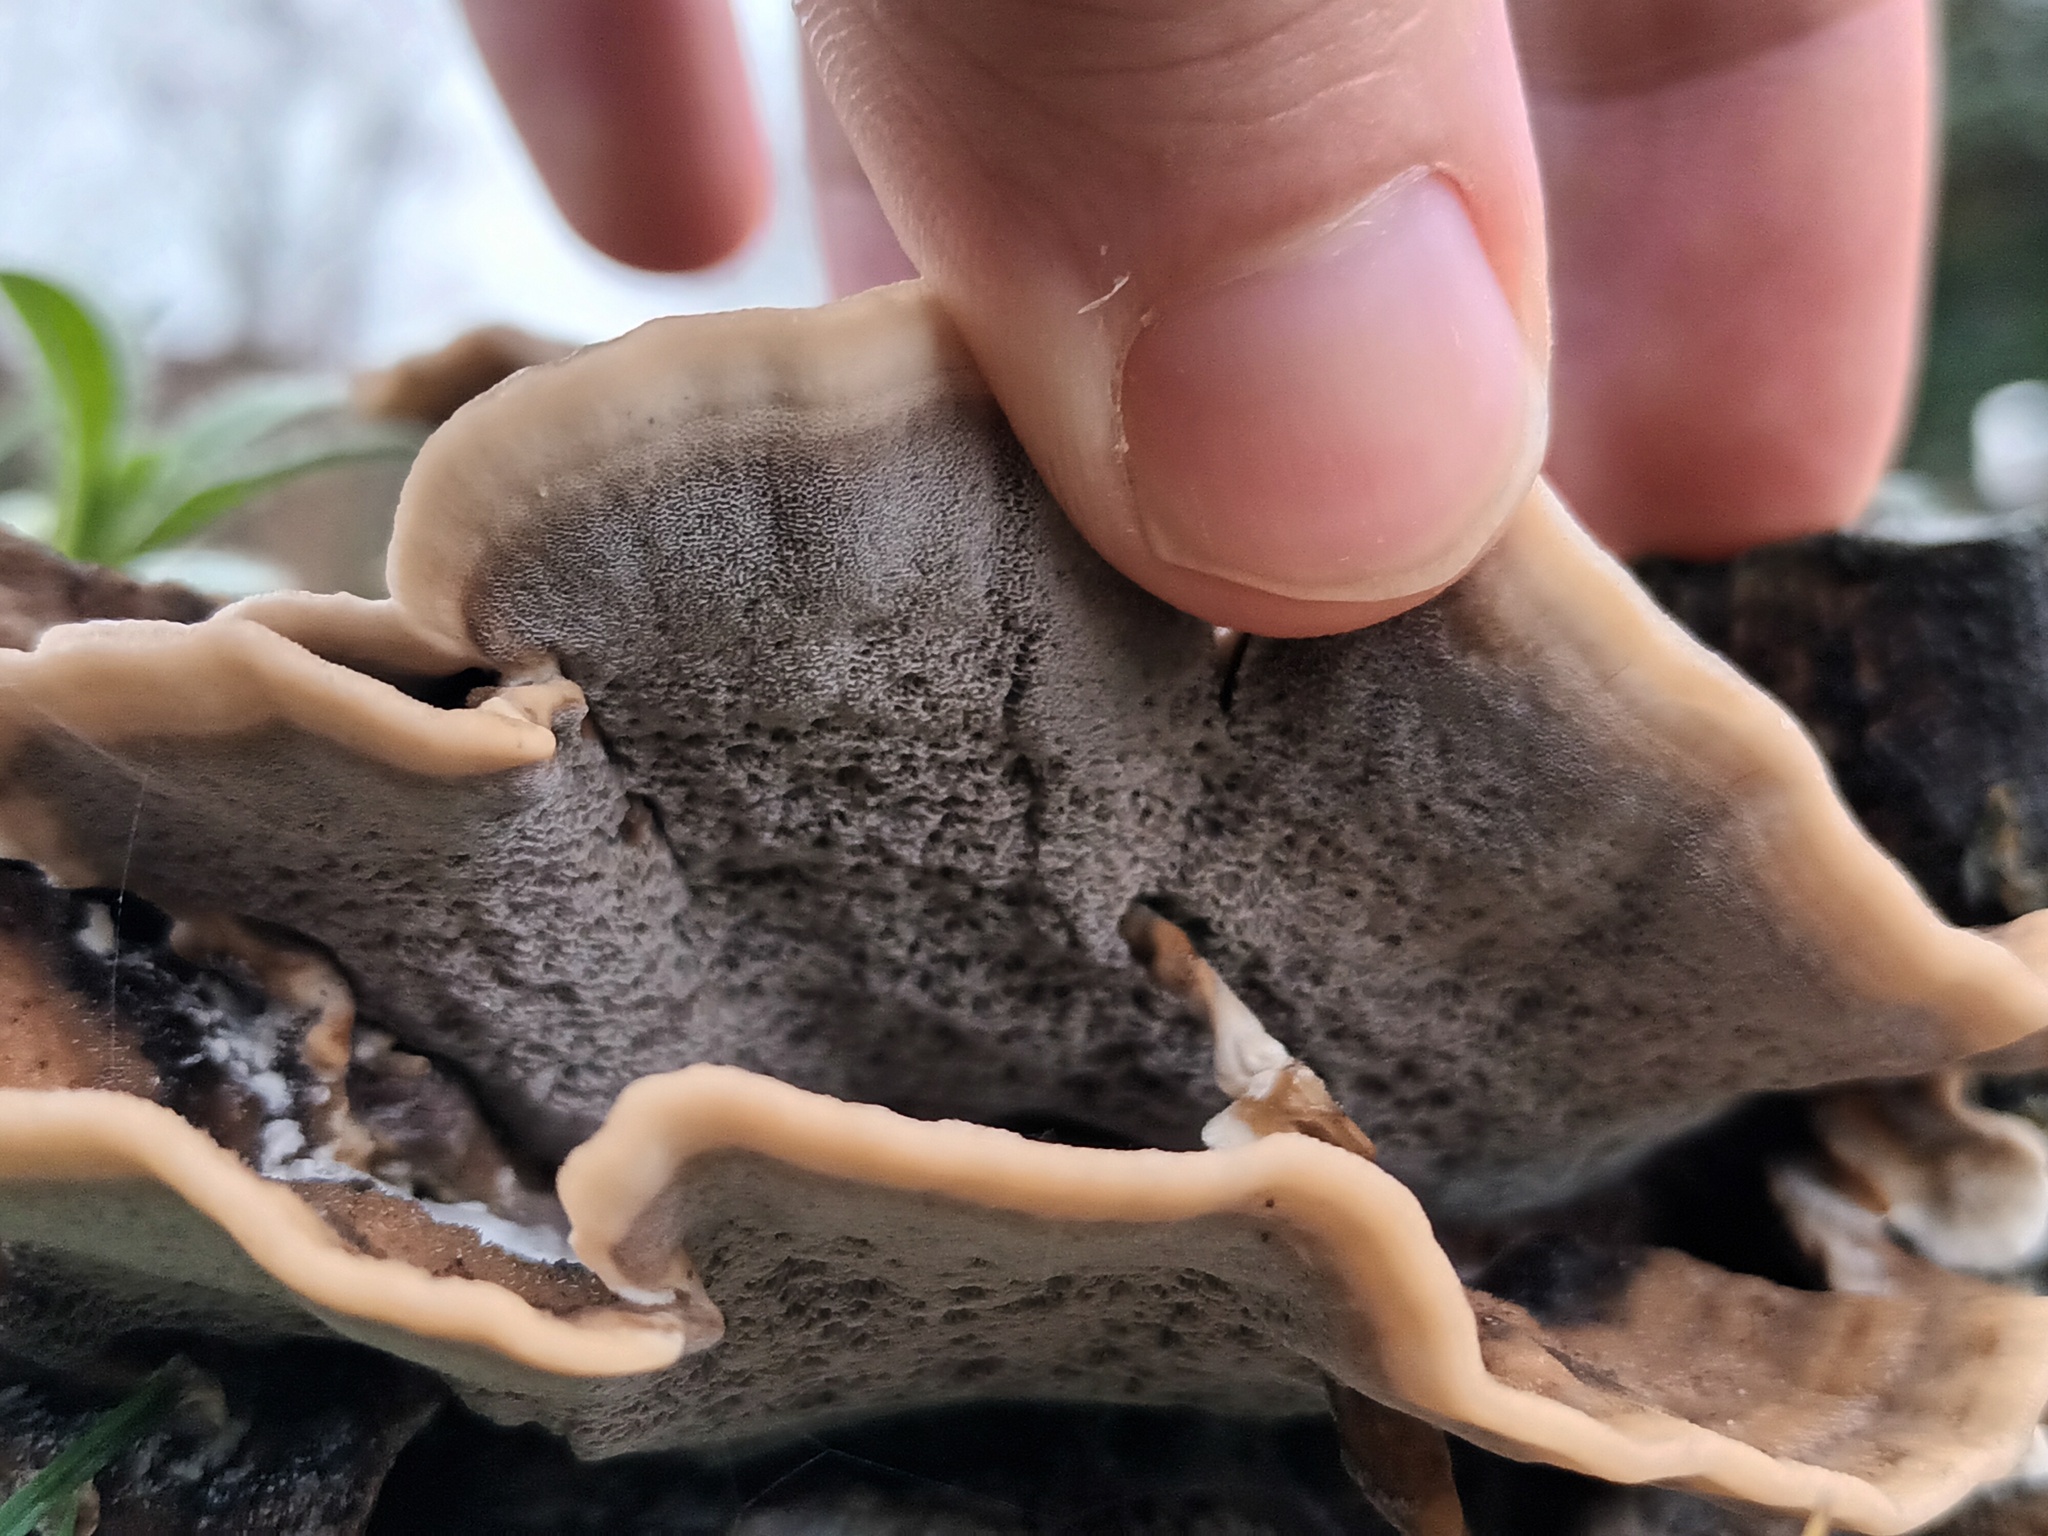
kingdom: Fungi
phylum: Basidiomycota
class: Agaricomycetes
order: Polyporales
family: Phanerochaetaceae
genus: Bjerkandera
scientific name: Bjerkandera adusta
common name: Smoky bracket
